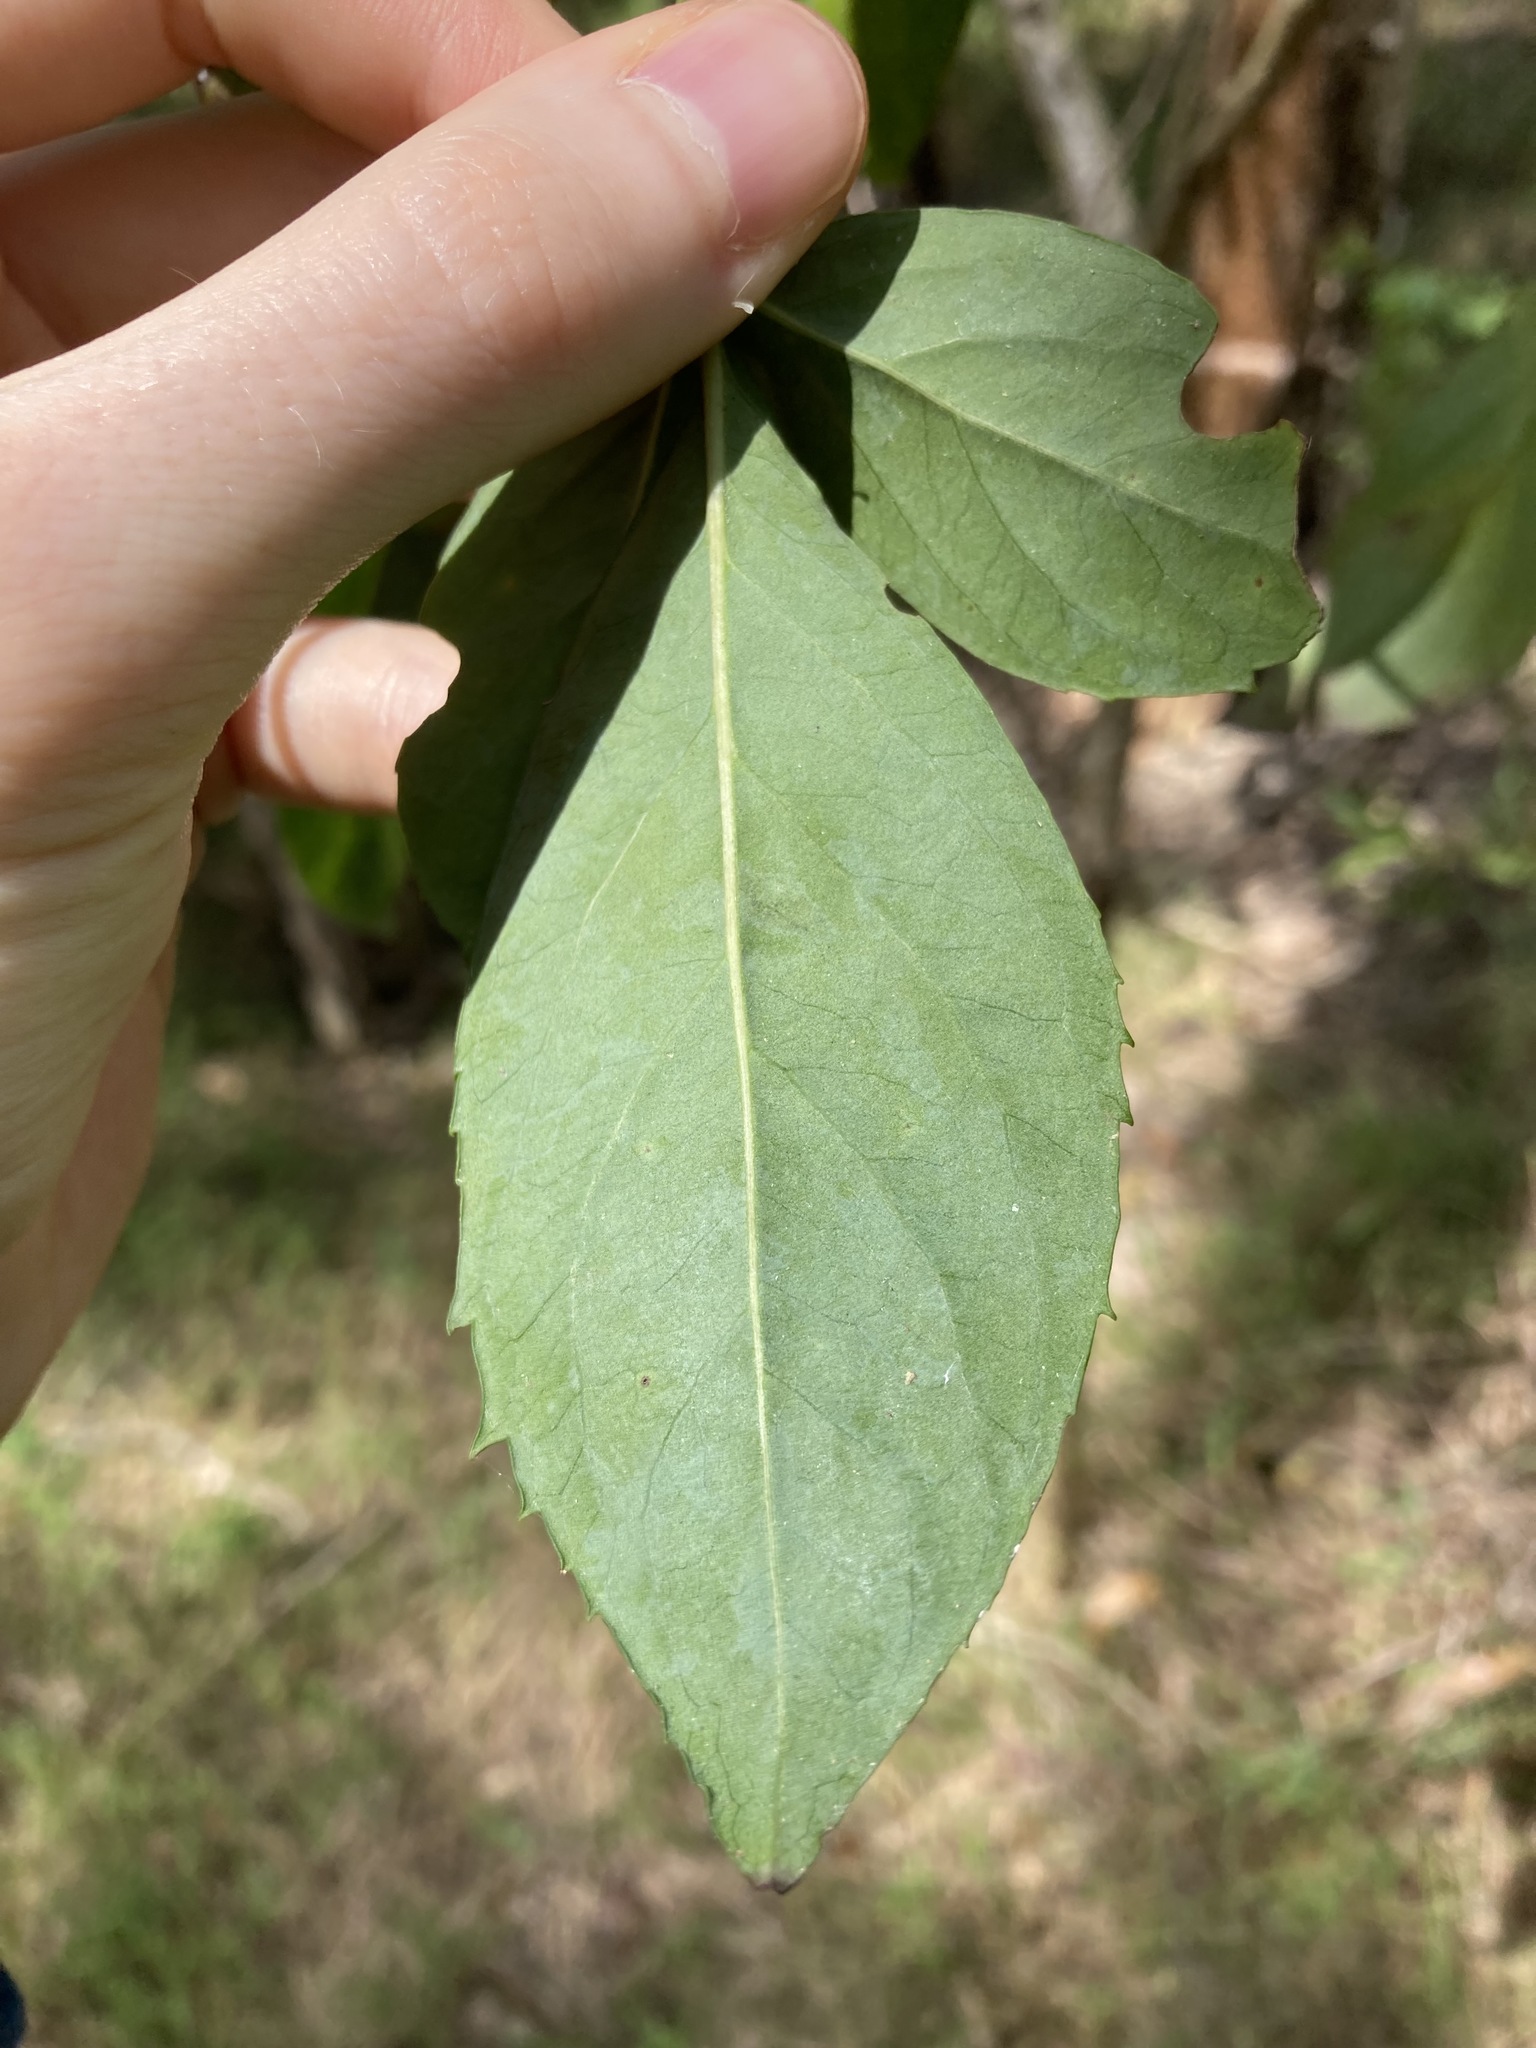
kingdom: Plantae
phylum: Tracheophyta
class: Magnoliopsida
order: Apiales
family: Araliaceae
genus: Polyscias
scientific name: Polyscias sambucifolia
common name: Elderberry-ash
